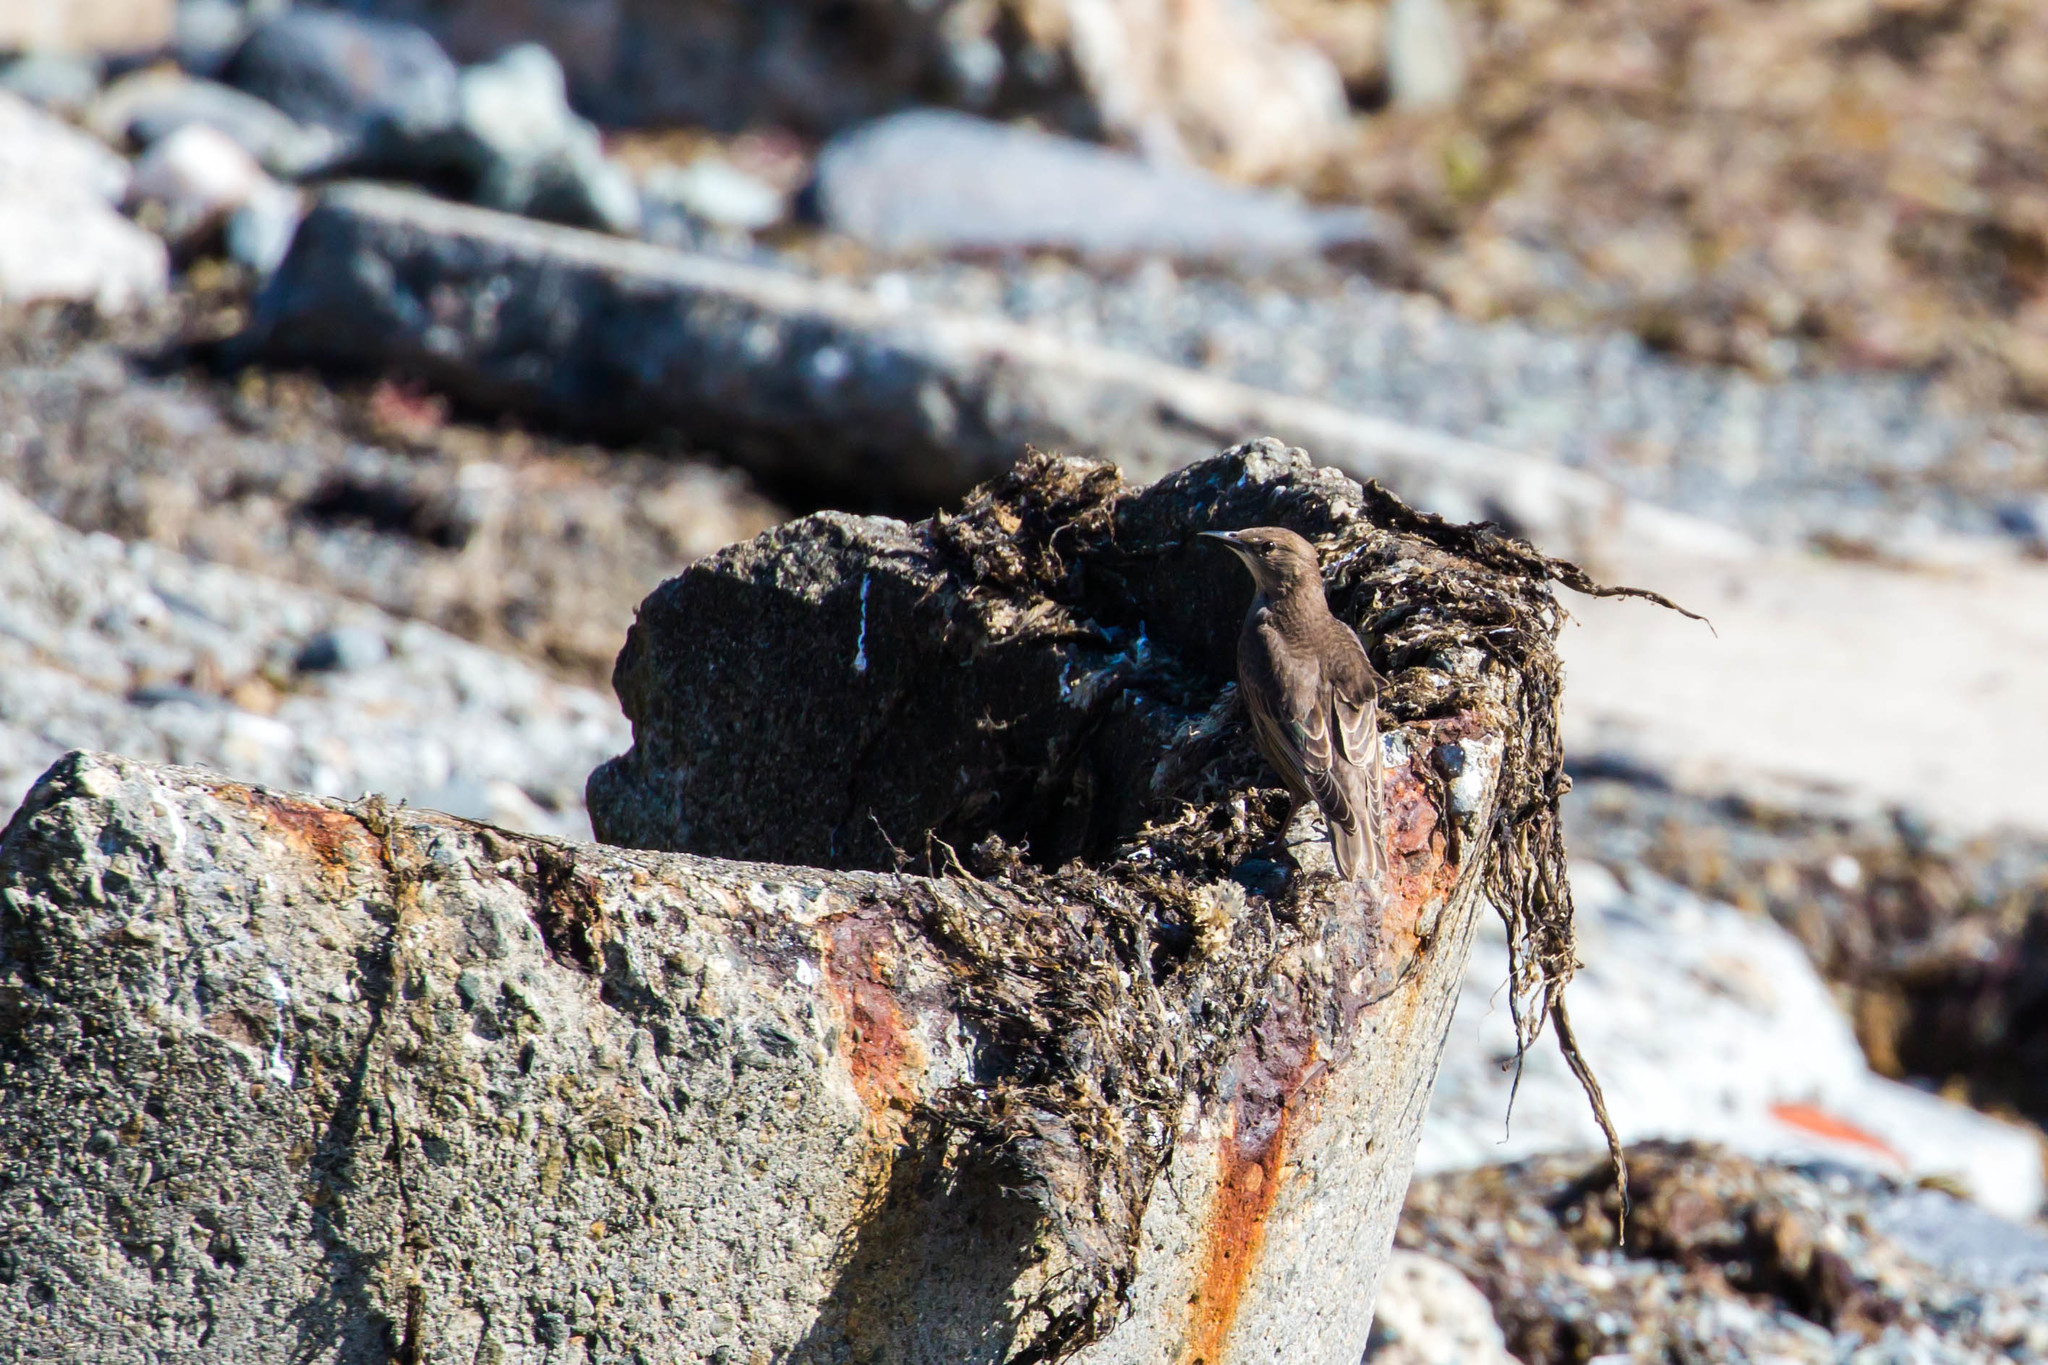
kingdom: Animalia
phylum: Chordata
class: Aves
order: Passeriformes
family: Sturnidae
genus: Sturnus
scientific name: Sturnus vulgaris
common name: Common starling
